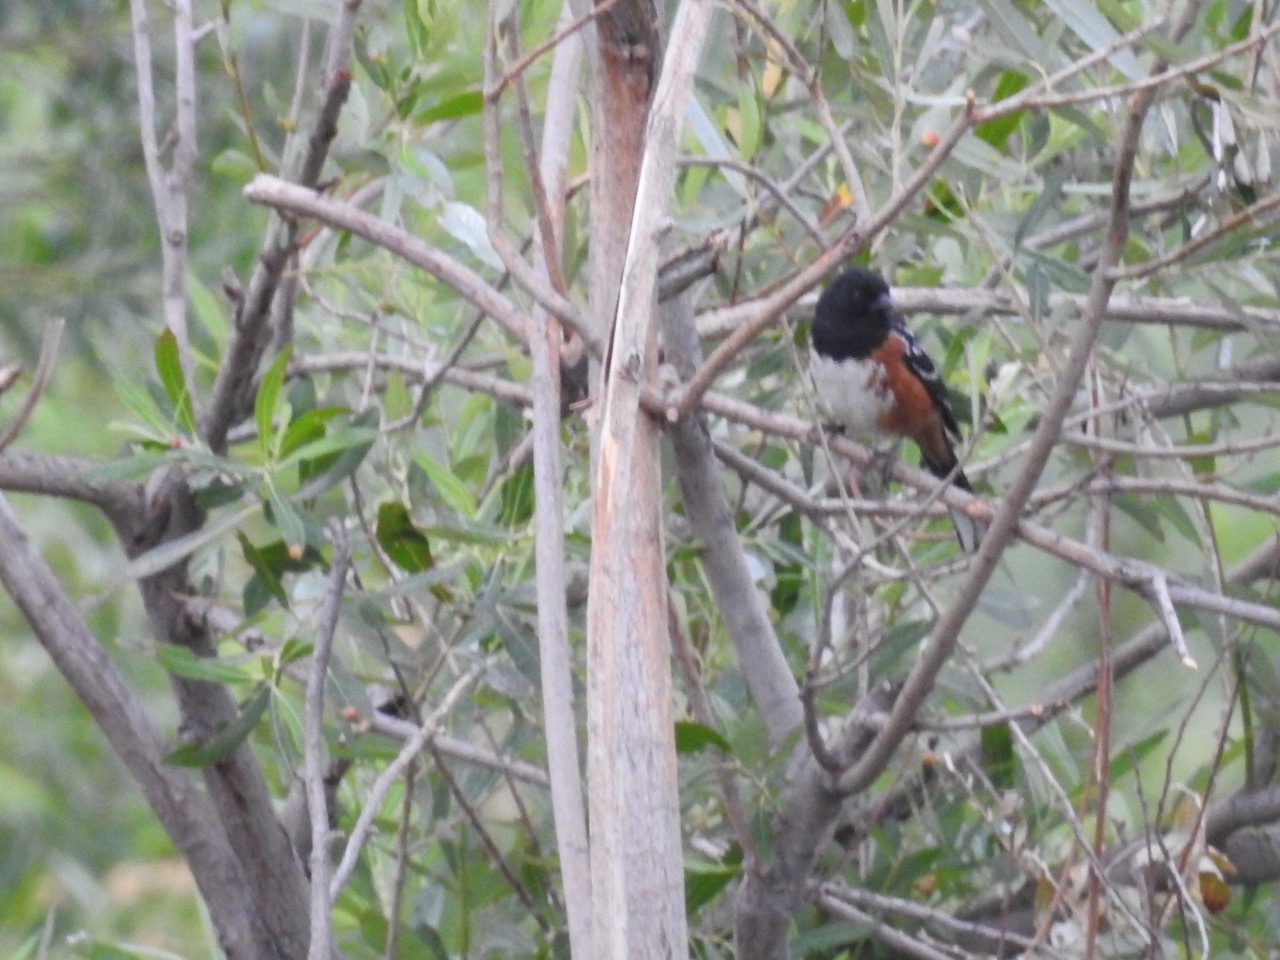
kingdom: Animalia
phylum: Chordata
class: Aves
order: Passeriformes
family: Passerellidae
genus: Pipilo
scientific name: Pipilo maculatus
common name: Spotted towhee
